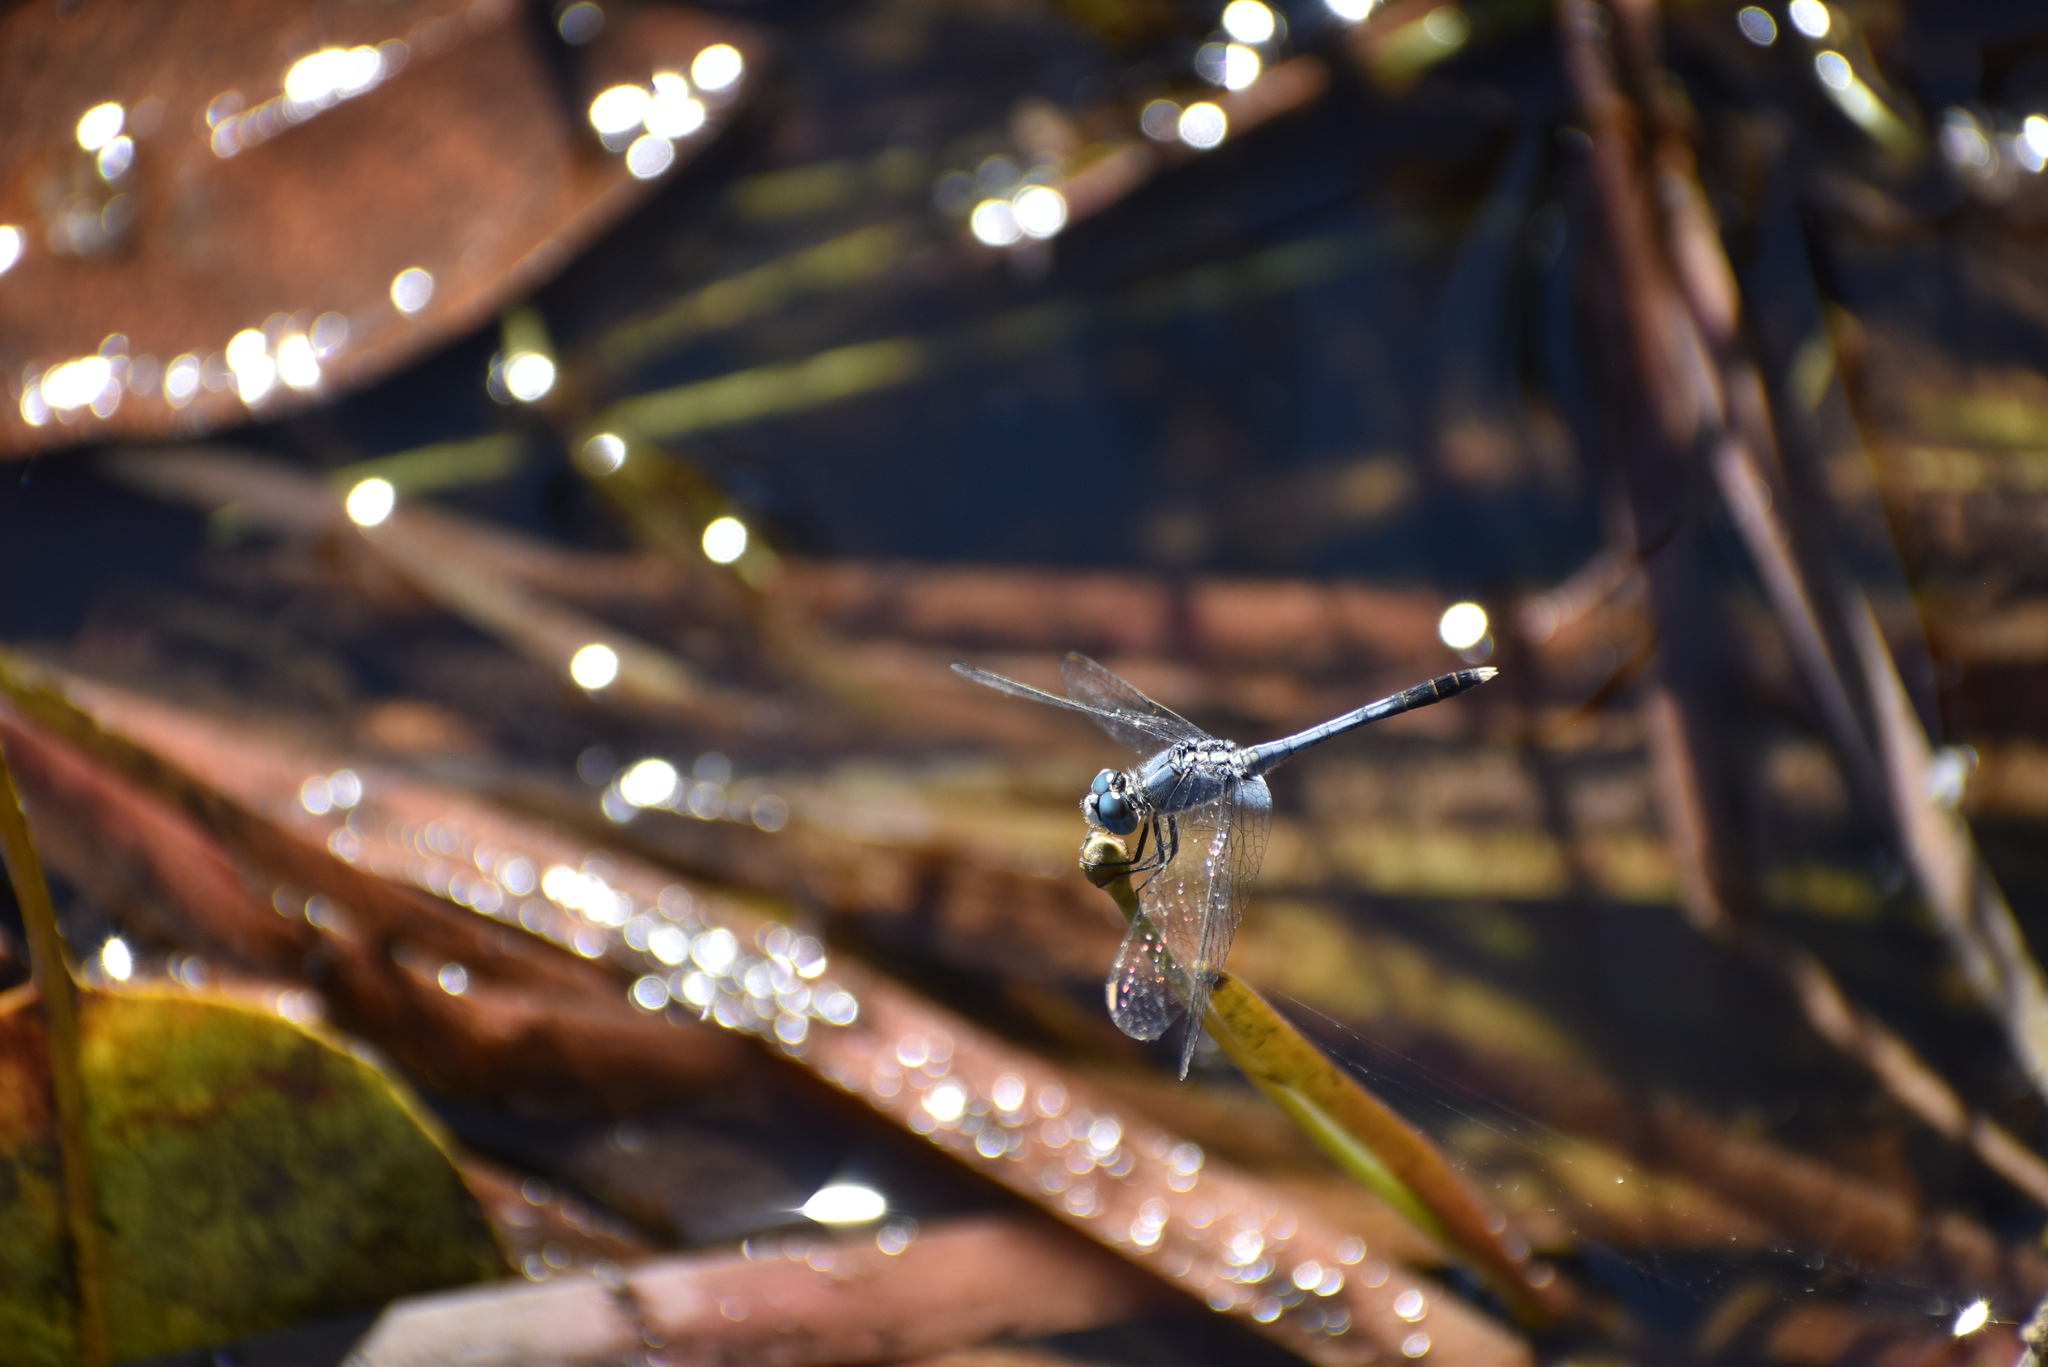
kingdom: Animalia
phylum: Arthropoda
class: Insecta
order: Odonata
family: Libellulidae
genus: Diplacodes
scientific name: Diplacodes trivialis
